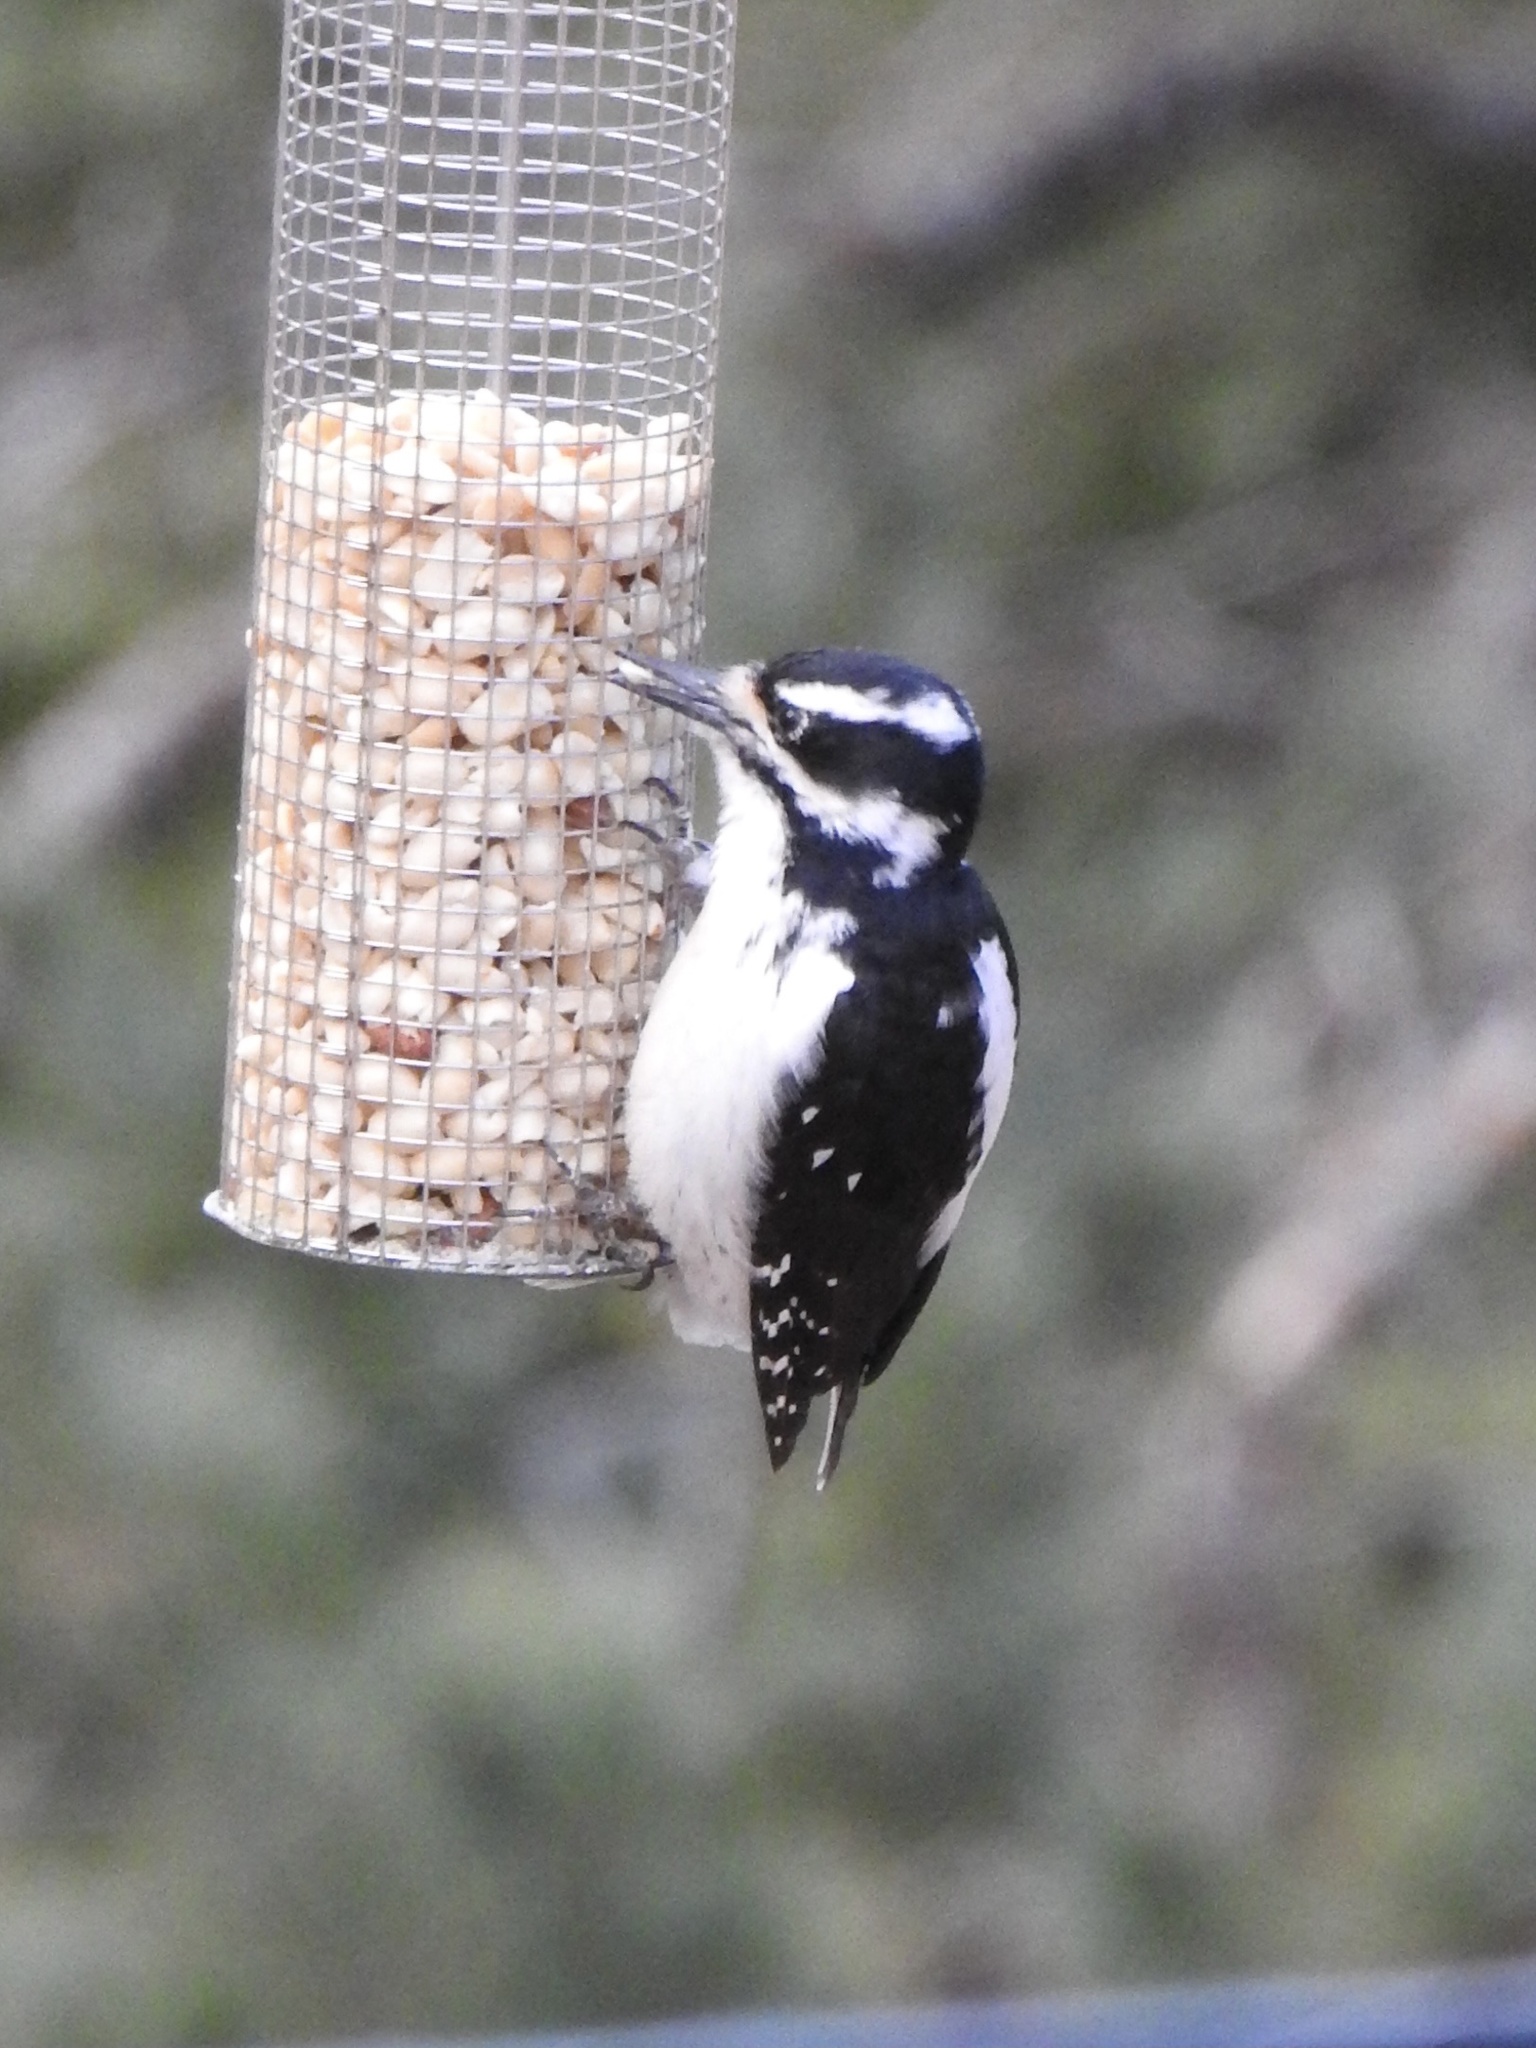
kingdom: Animalia
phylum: Chordata
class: Aves
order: Piciformes
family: Picidae
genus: Leuconotopicus
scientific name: Leuconotopicus villosus
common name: Hairy woodpecker
